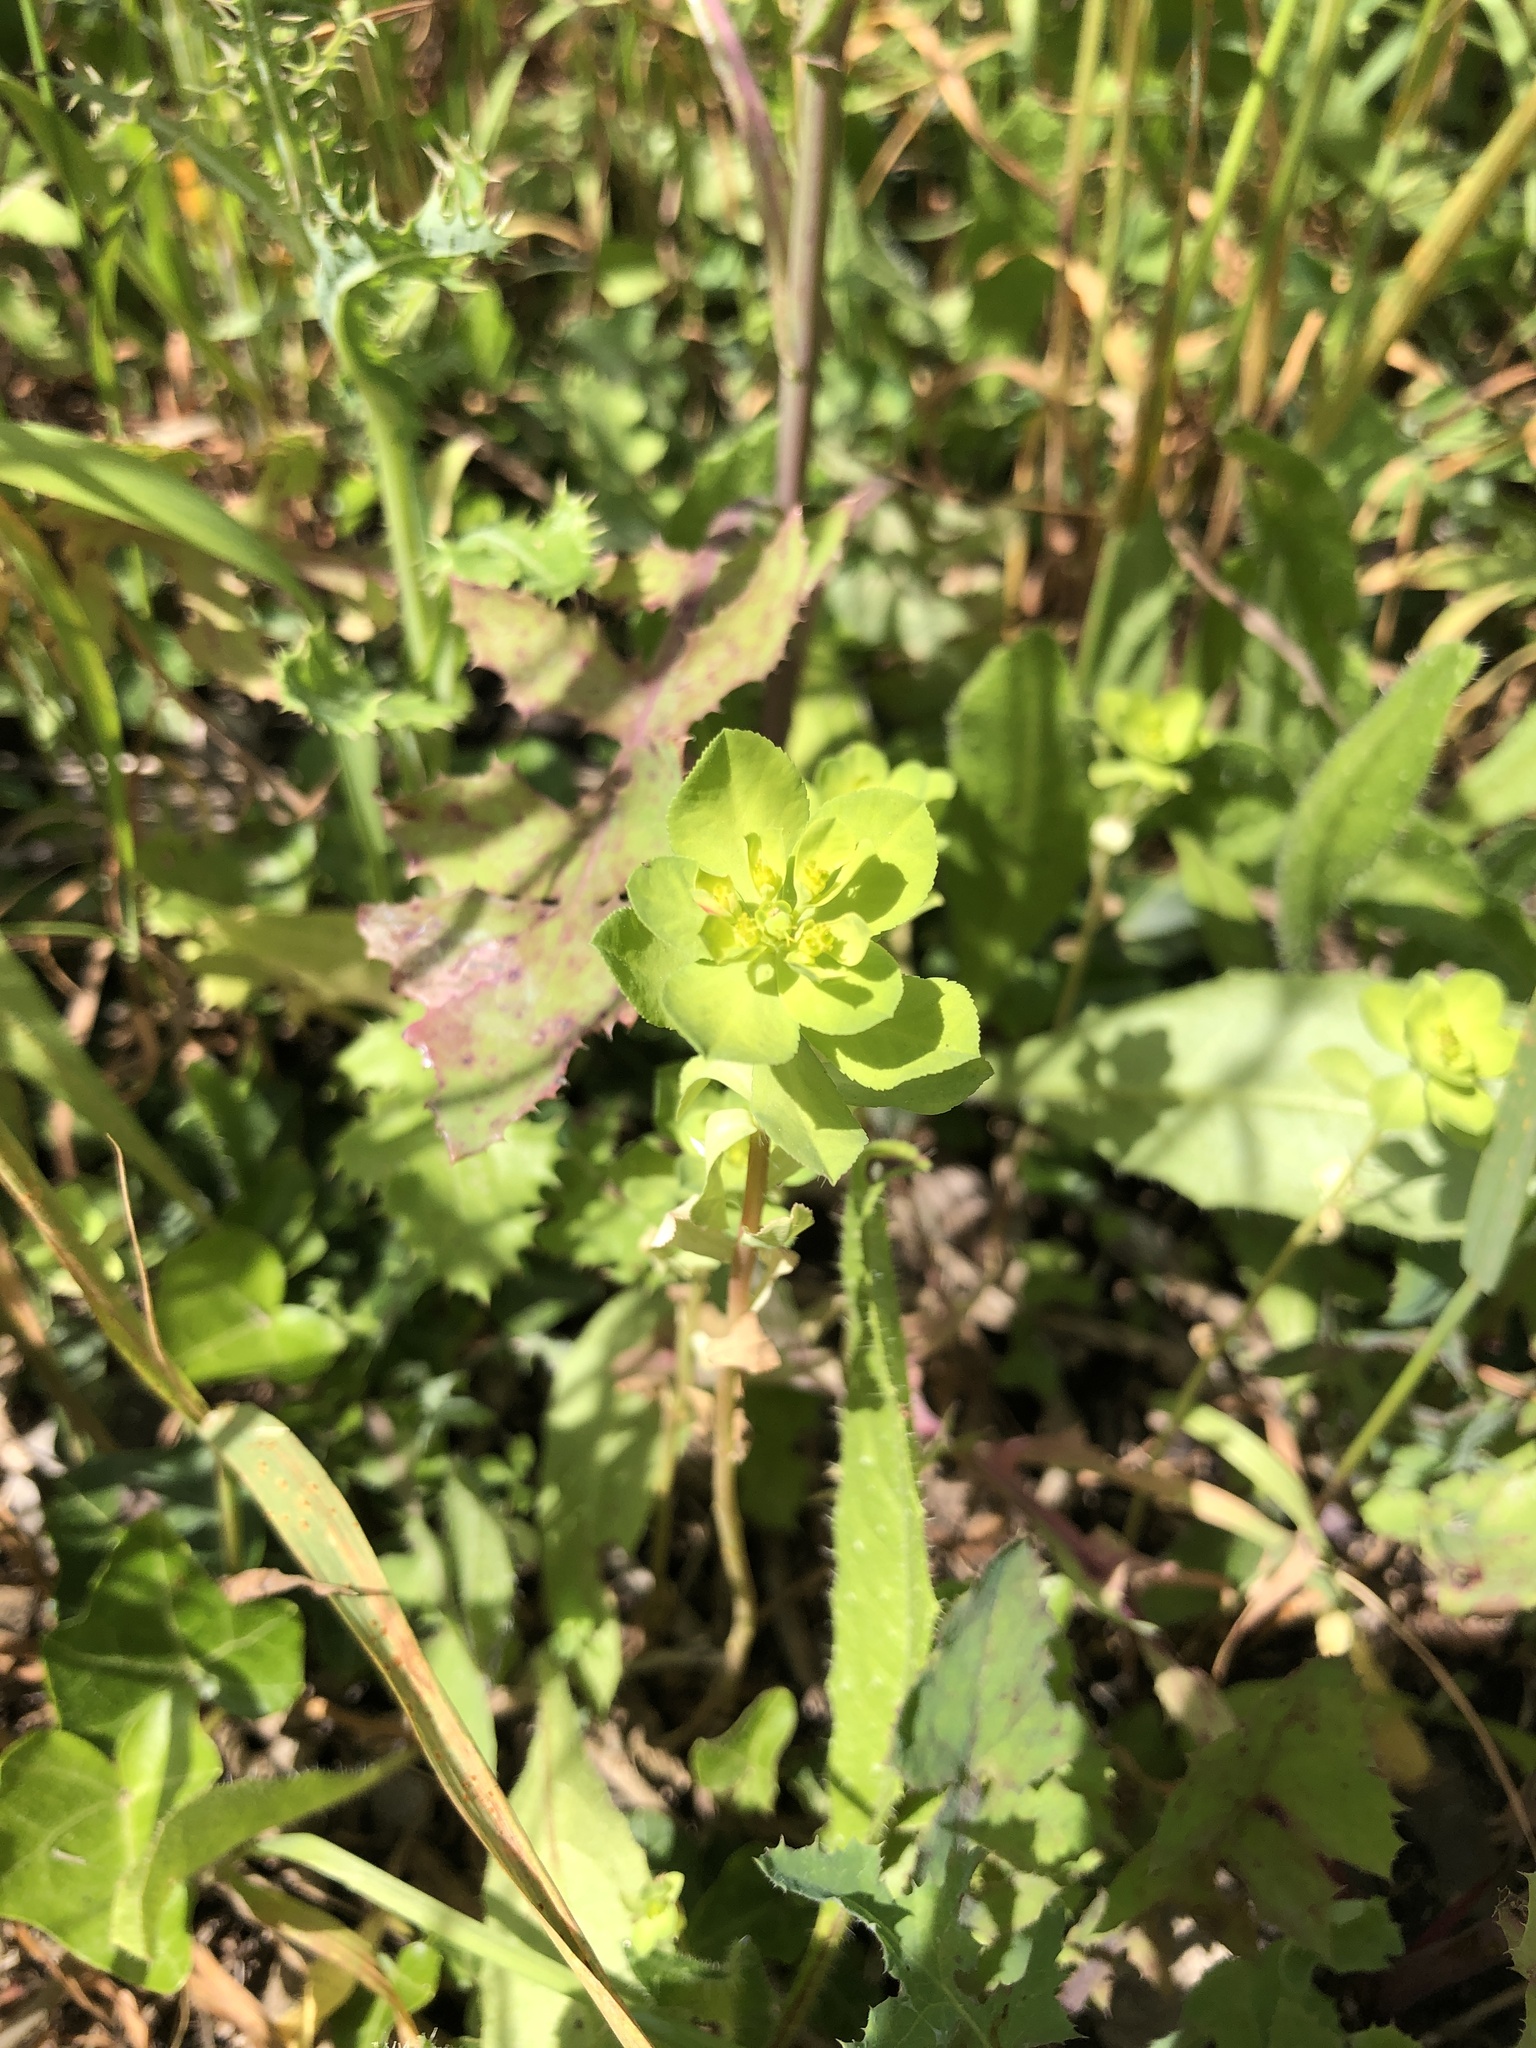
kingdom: Plantae
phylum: Tracheophyta
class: Magnoliopsida
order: Malpighiales
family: Euphorbiaceae
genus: Euphorbia
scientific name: Euphorbia helioscopia
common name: Sun spurge
